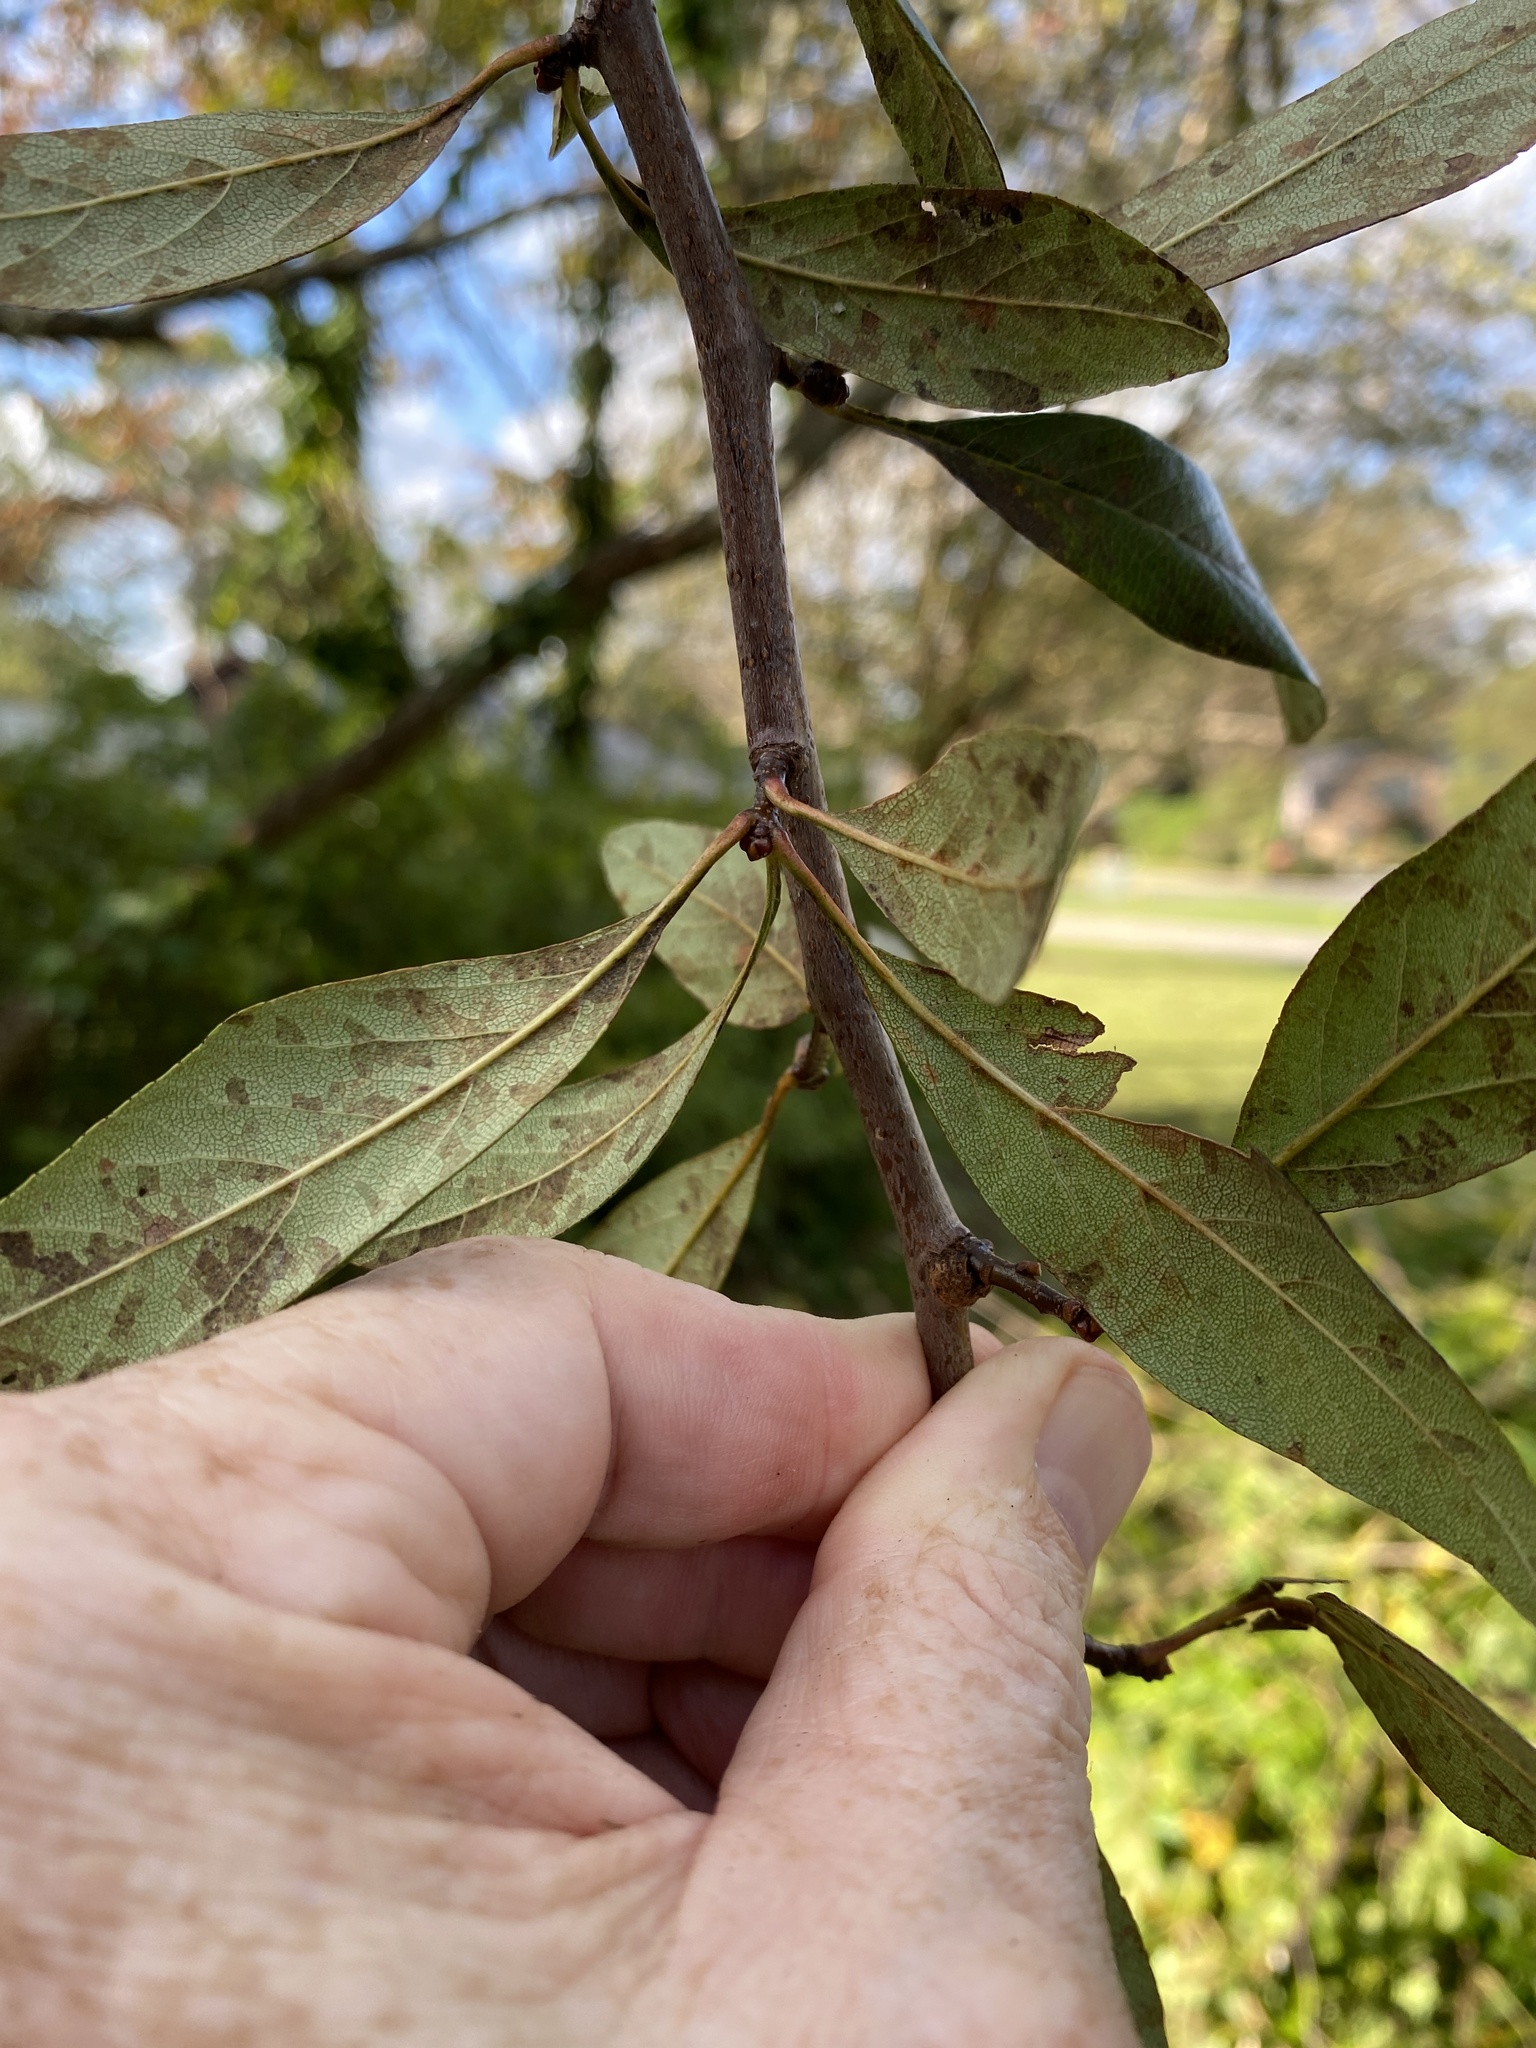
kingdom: Plantae
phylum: Tracheophyta
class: Magnoliopsida
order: Rosales
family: Rosaceae
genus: Crataegus
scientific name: Crataegus opaca
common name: Apple haw
